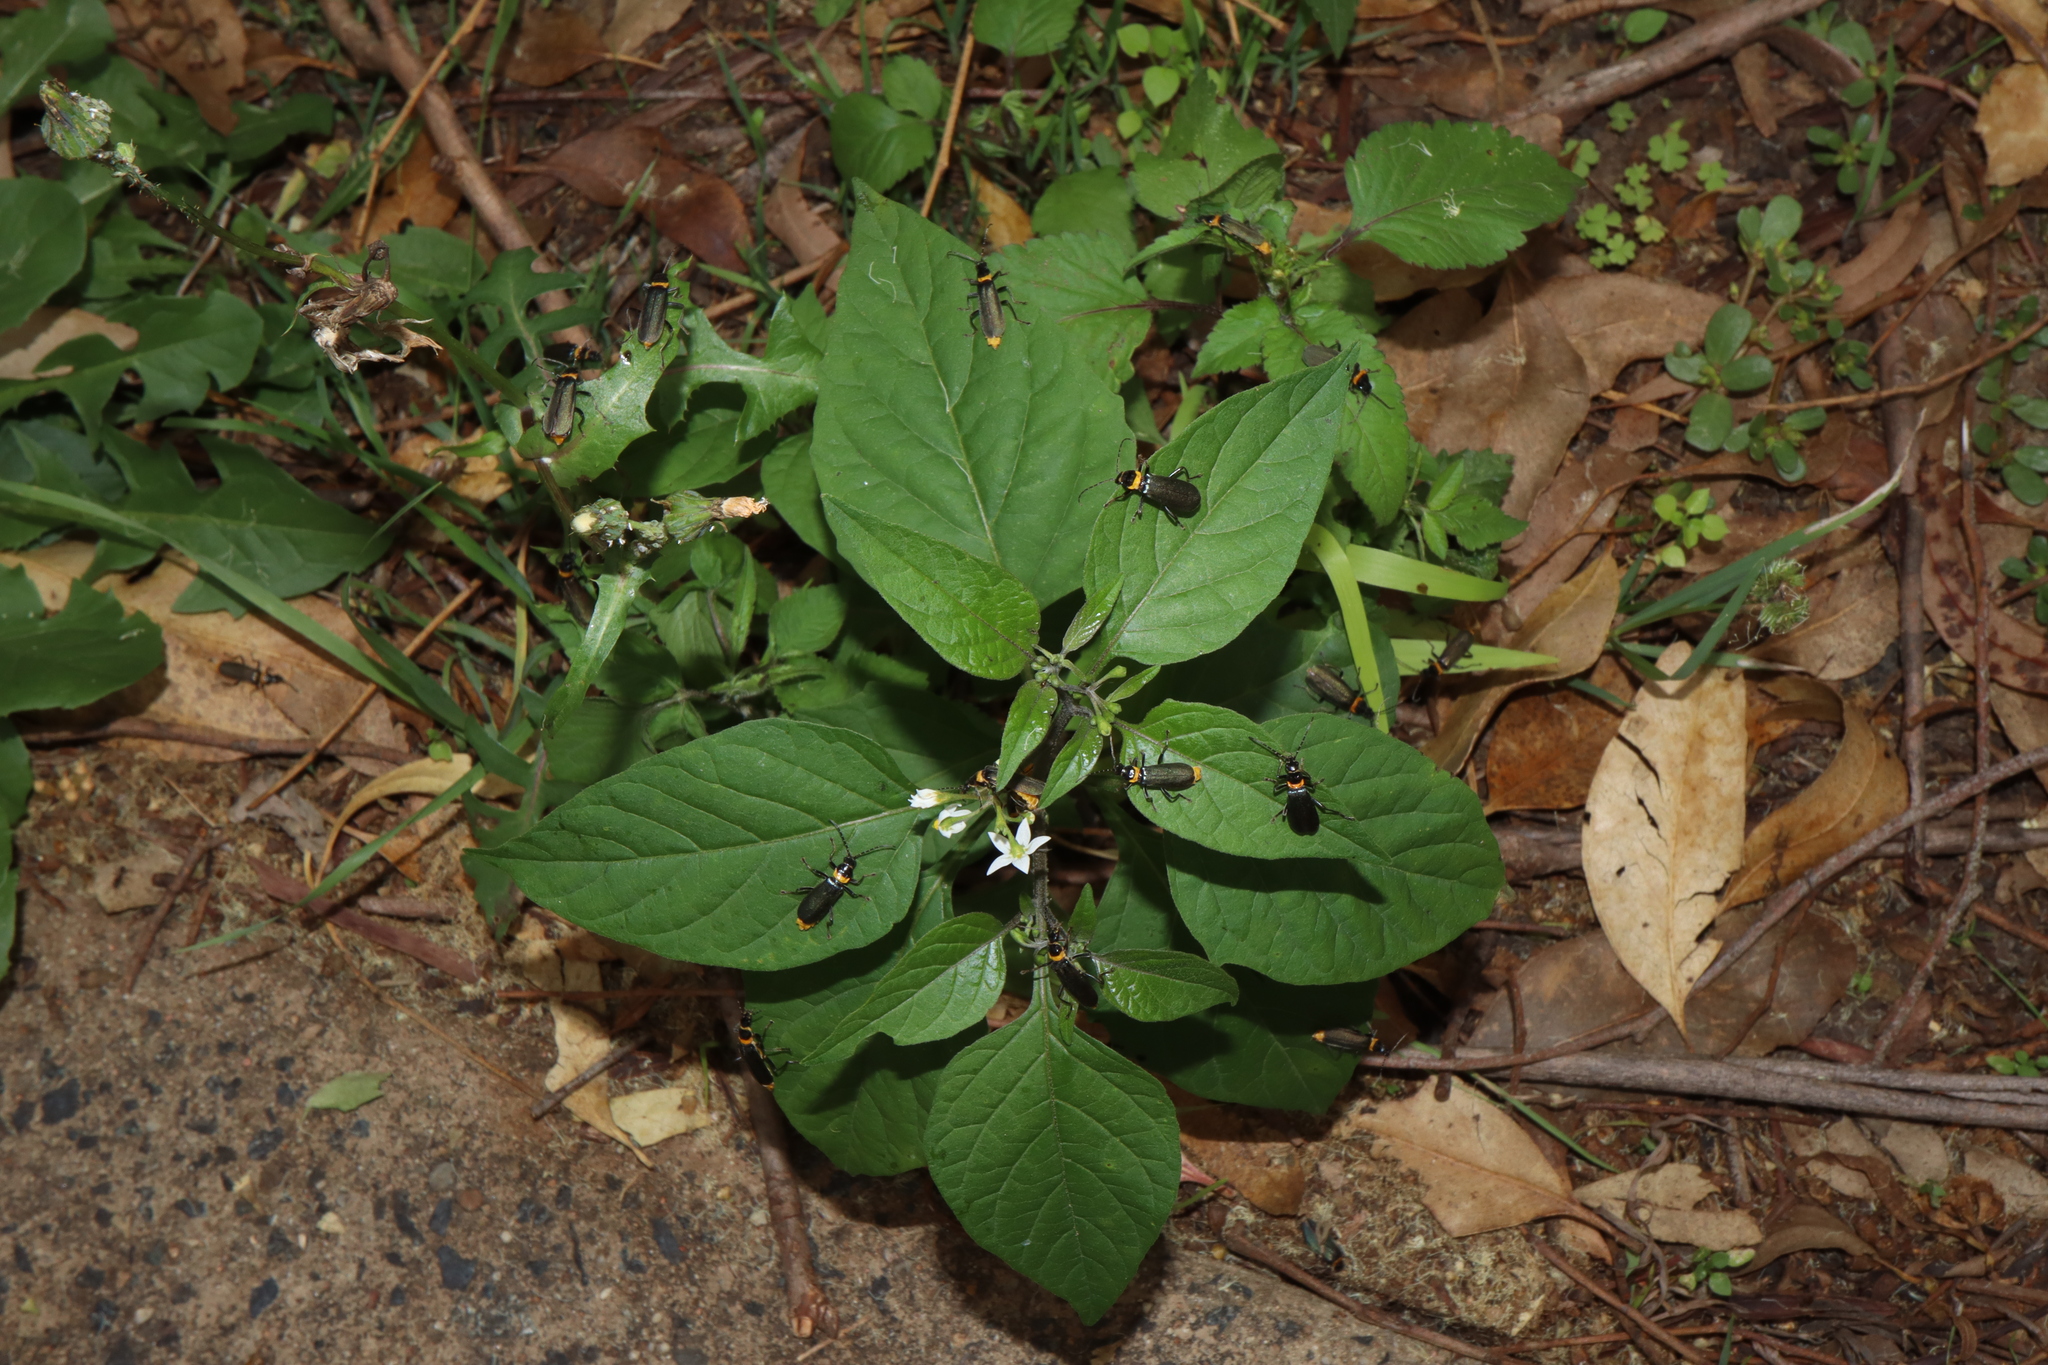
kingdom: Animalia
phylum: Arthropoda
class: Insecta
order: Coleoptera
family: Cantharidae
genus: Chauliognathus
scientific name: Chauliognathus
